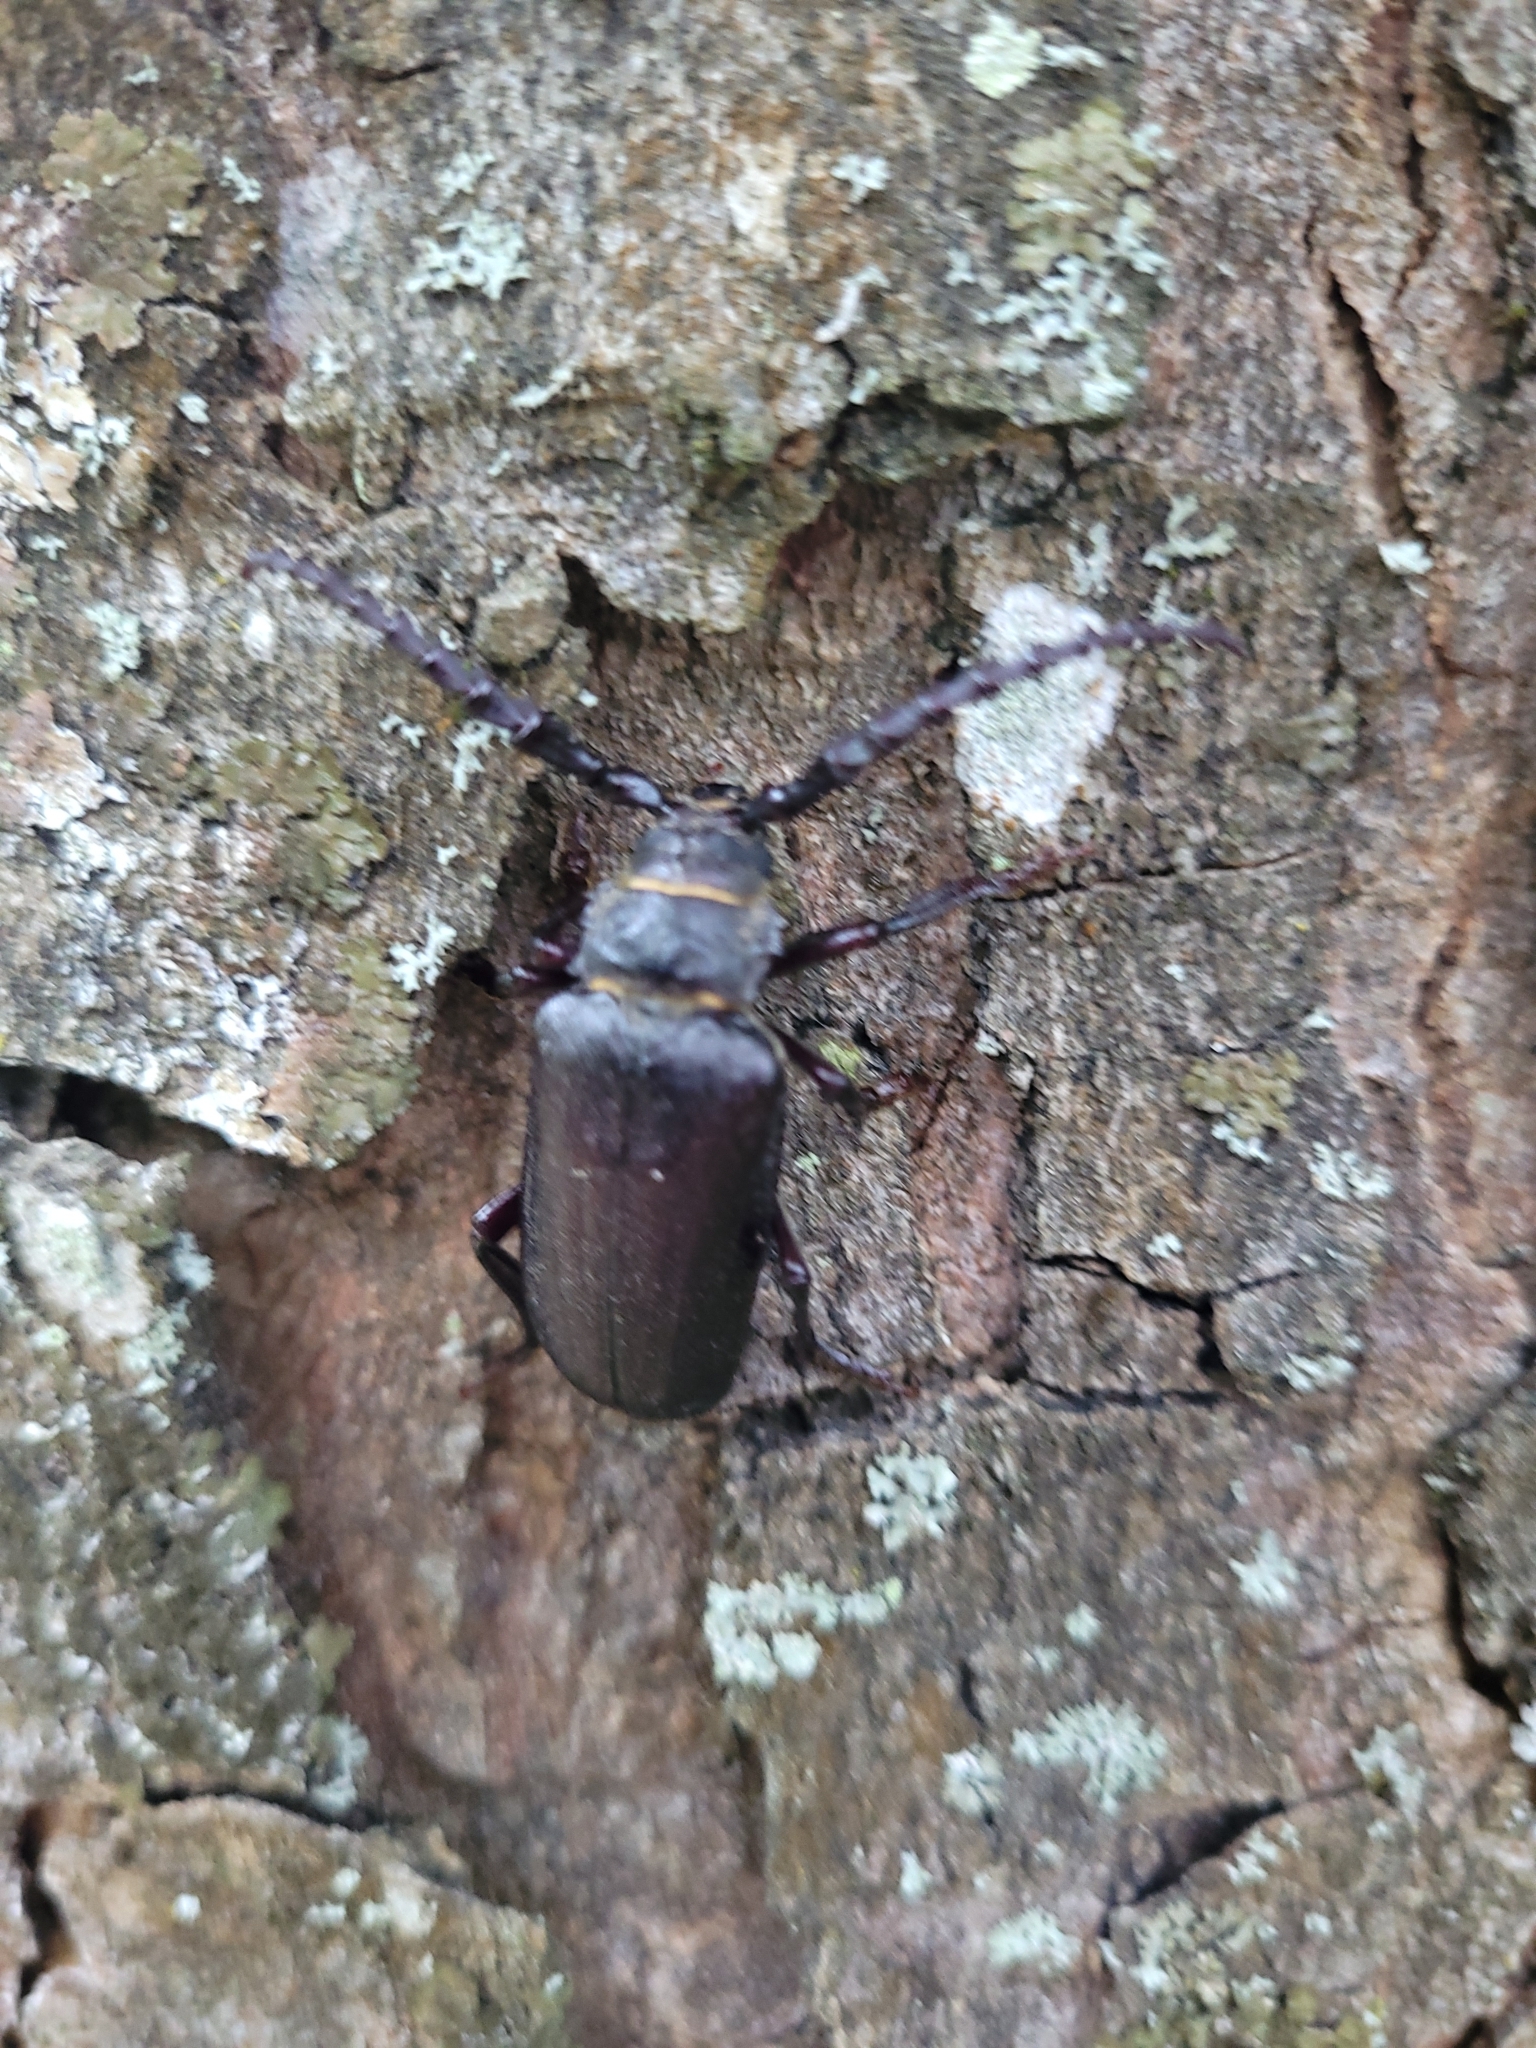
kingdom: Animalia
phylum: Arthropoda
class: Insecta
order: Coleoptera
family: Cerambycidae
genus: Prionus
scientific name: Prionus coriarius
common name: Tanner beetle
